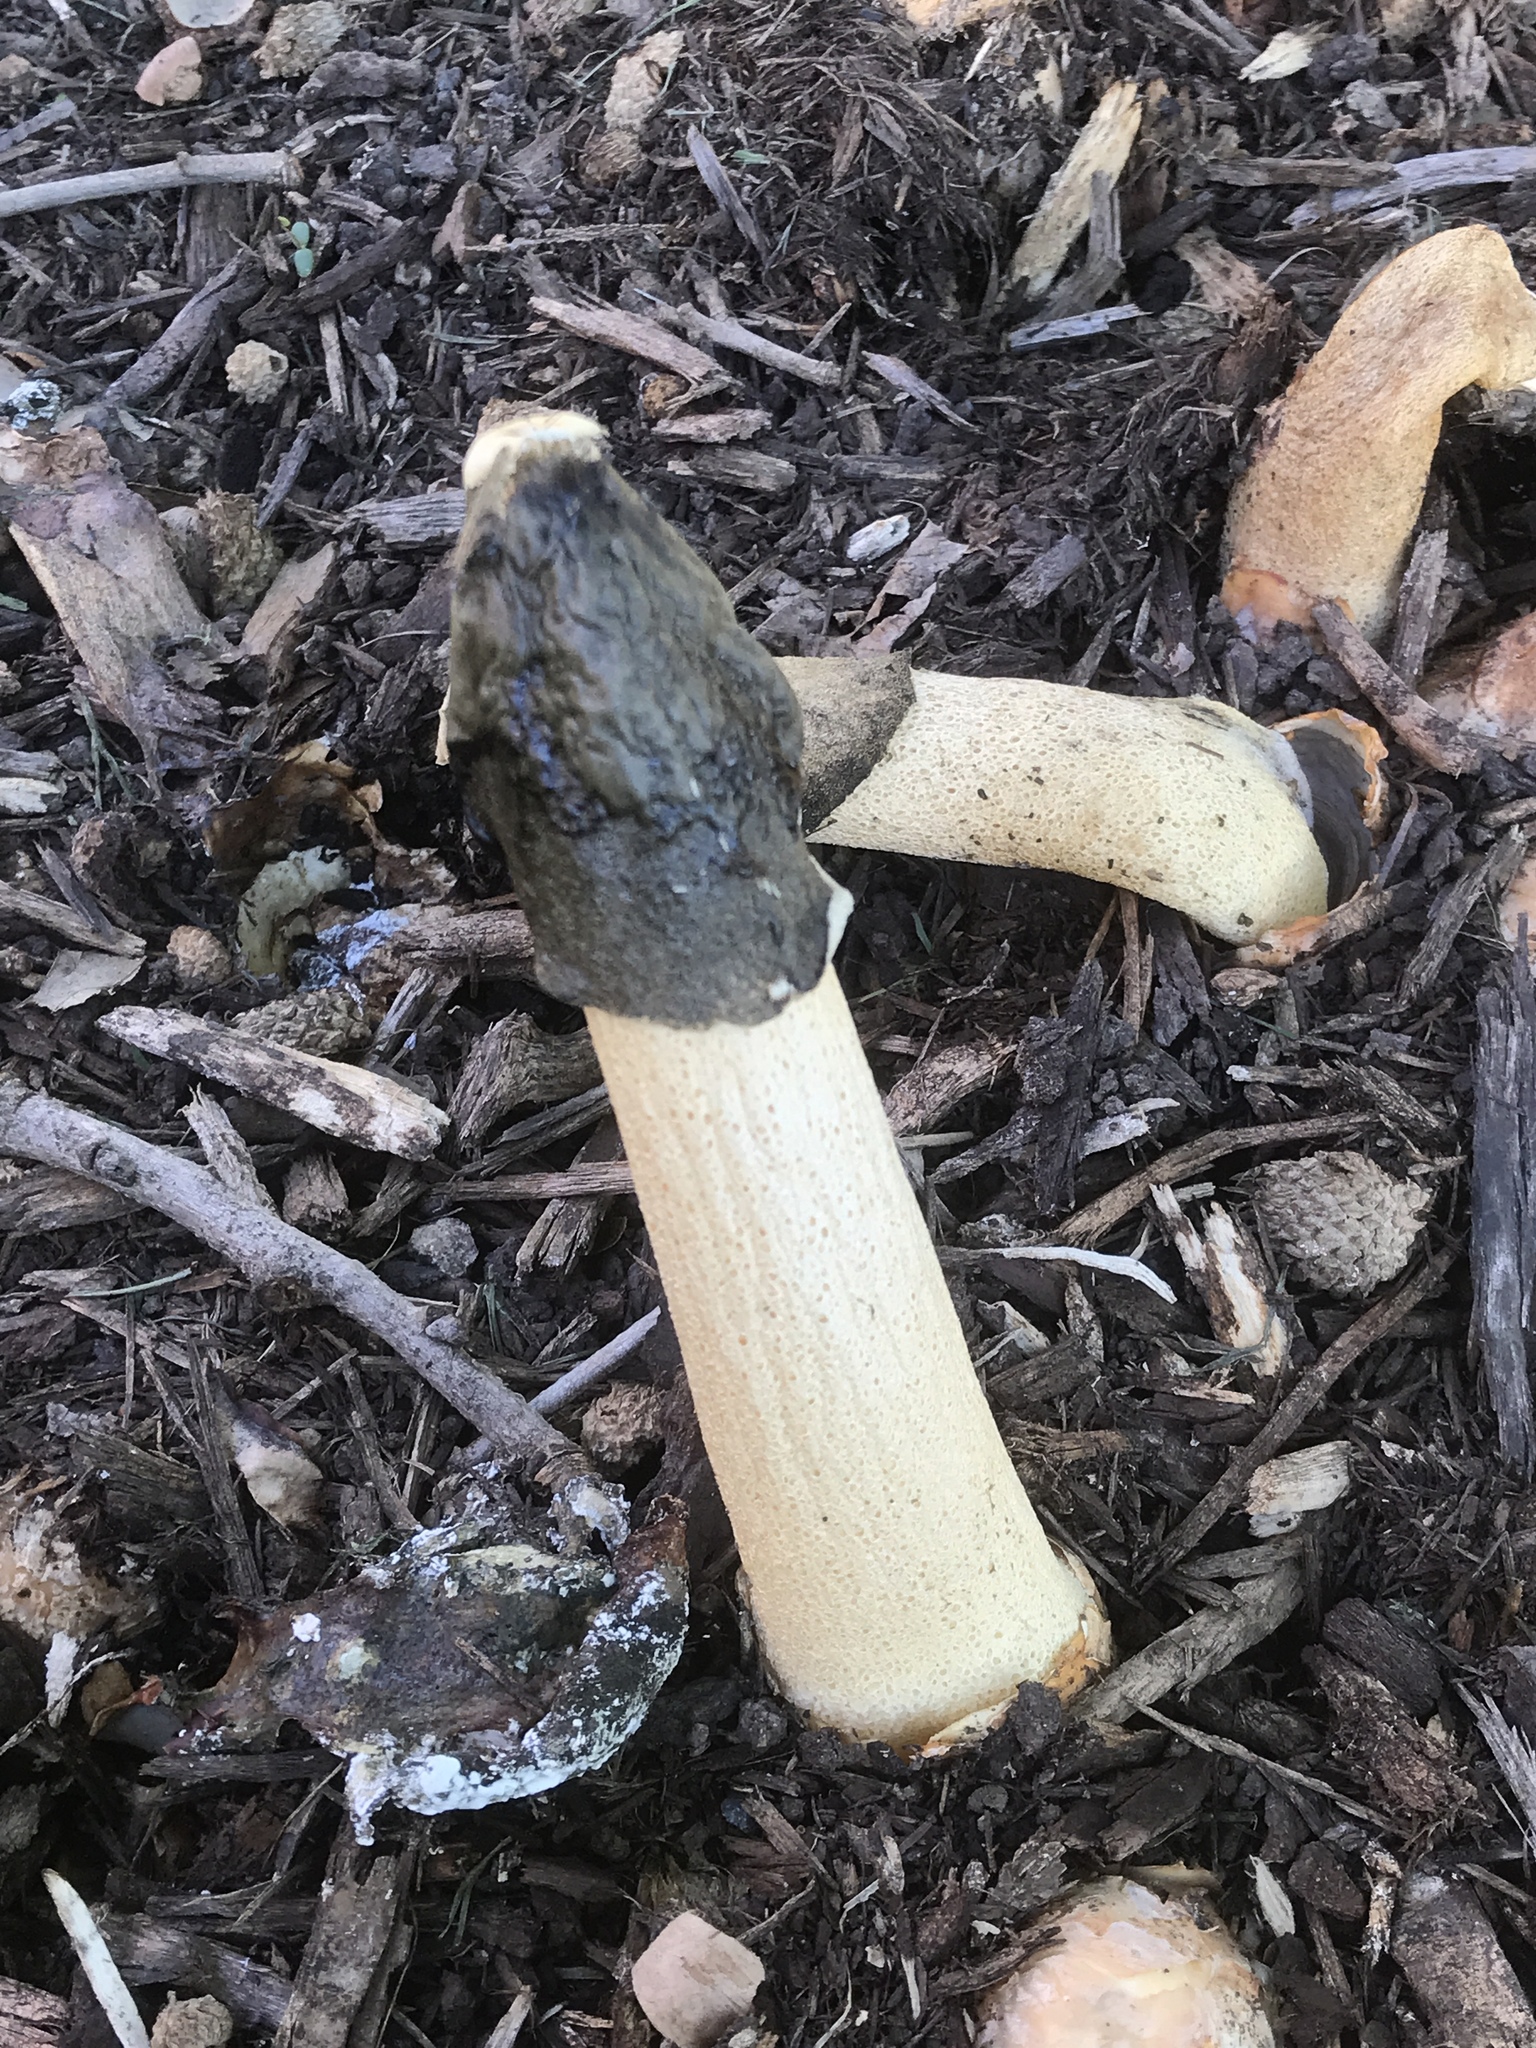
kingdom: Fungi
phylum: Basidiomycota
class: Agaricomycetes
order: Phallales
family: Phallaceae
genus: Phallus
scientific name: Phallus ravenelii
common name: Ravenel's stinkhorn
